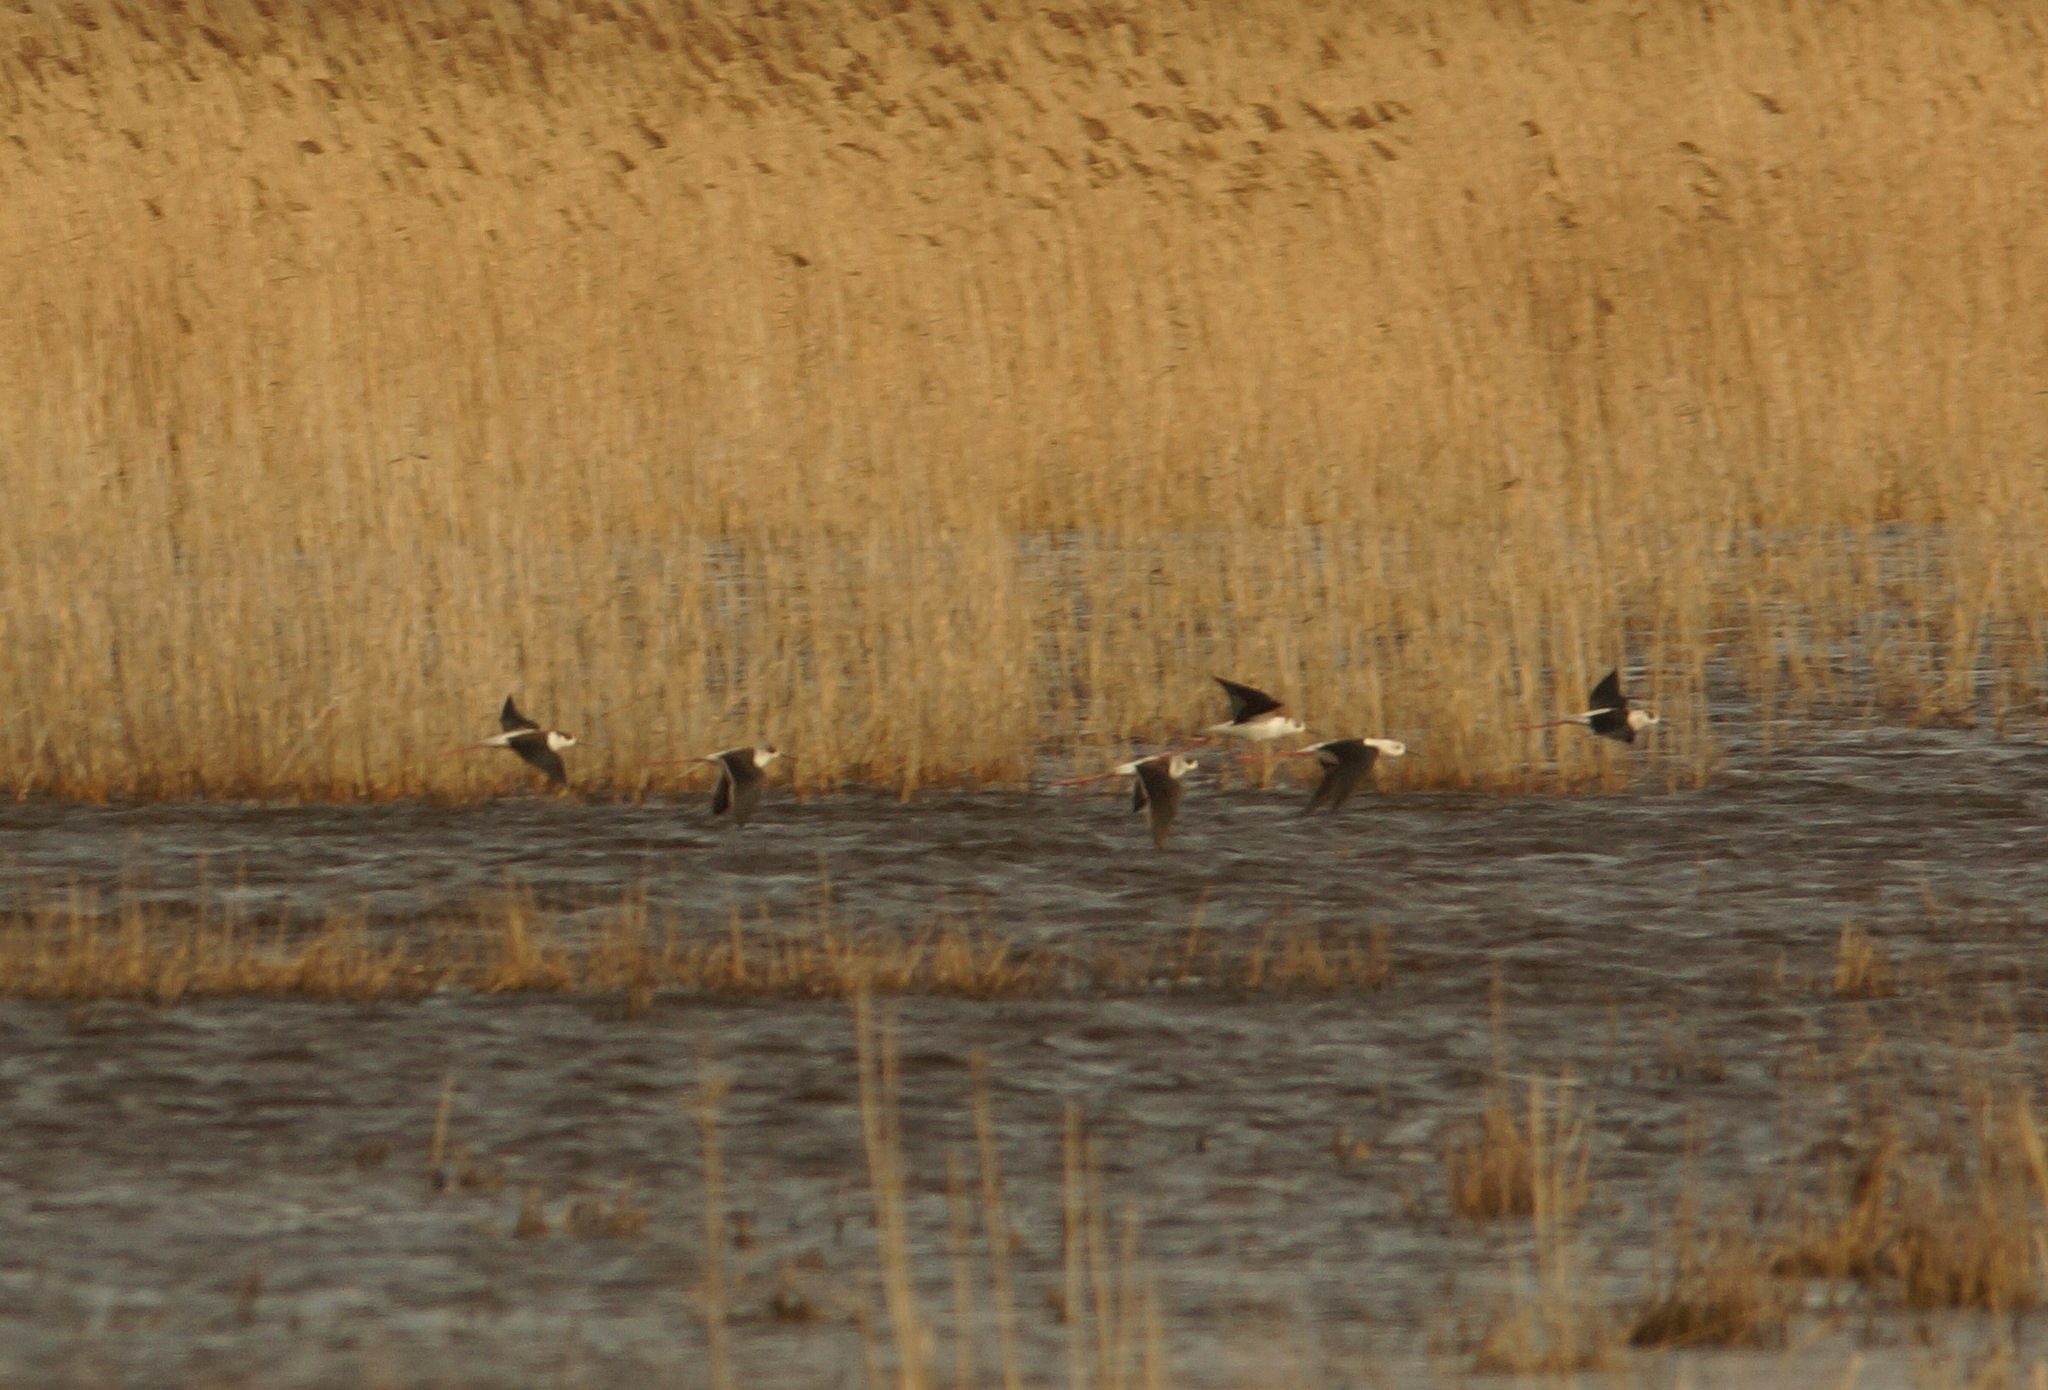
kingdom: Animalia
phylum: Chordata
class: Aves
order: Charadriiformes
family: Recurvirostridae
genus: Himantopus
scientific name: Himantopus himantopus
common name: Black-winged stilt
